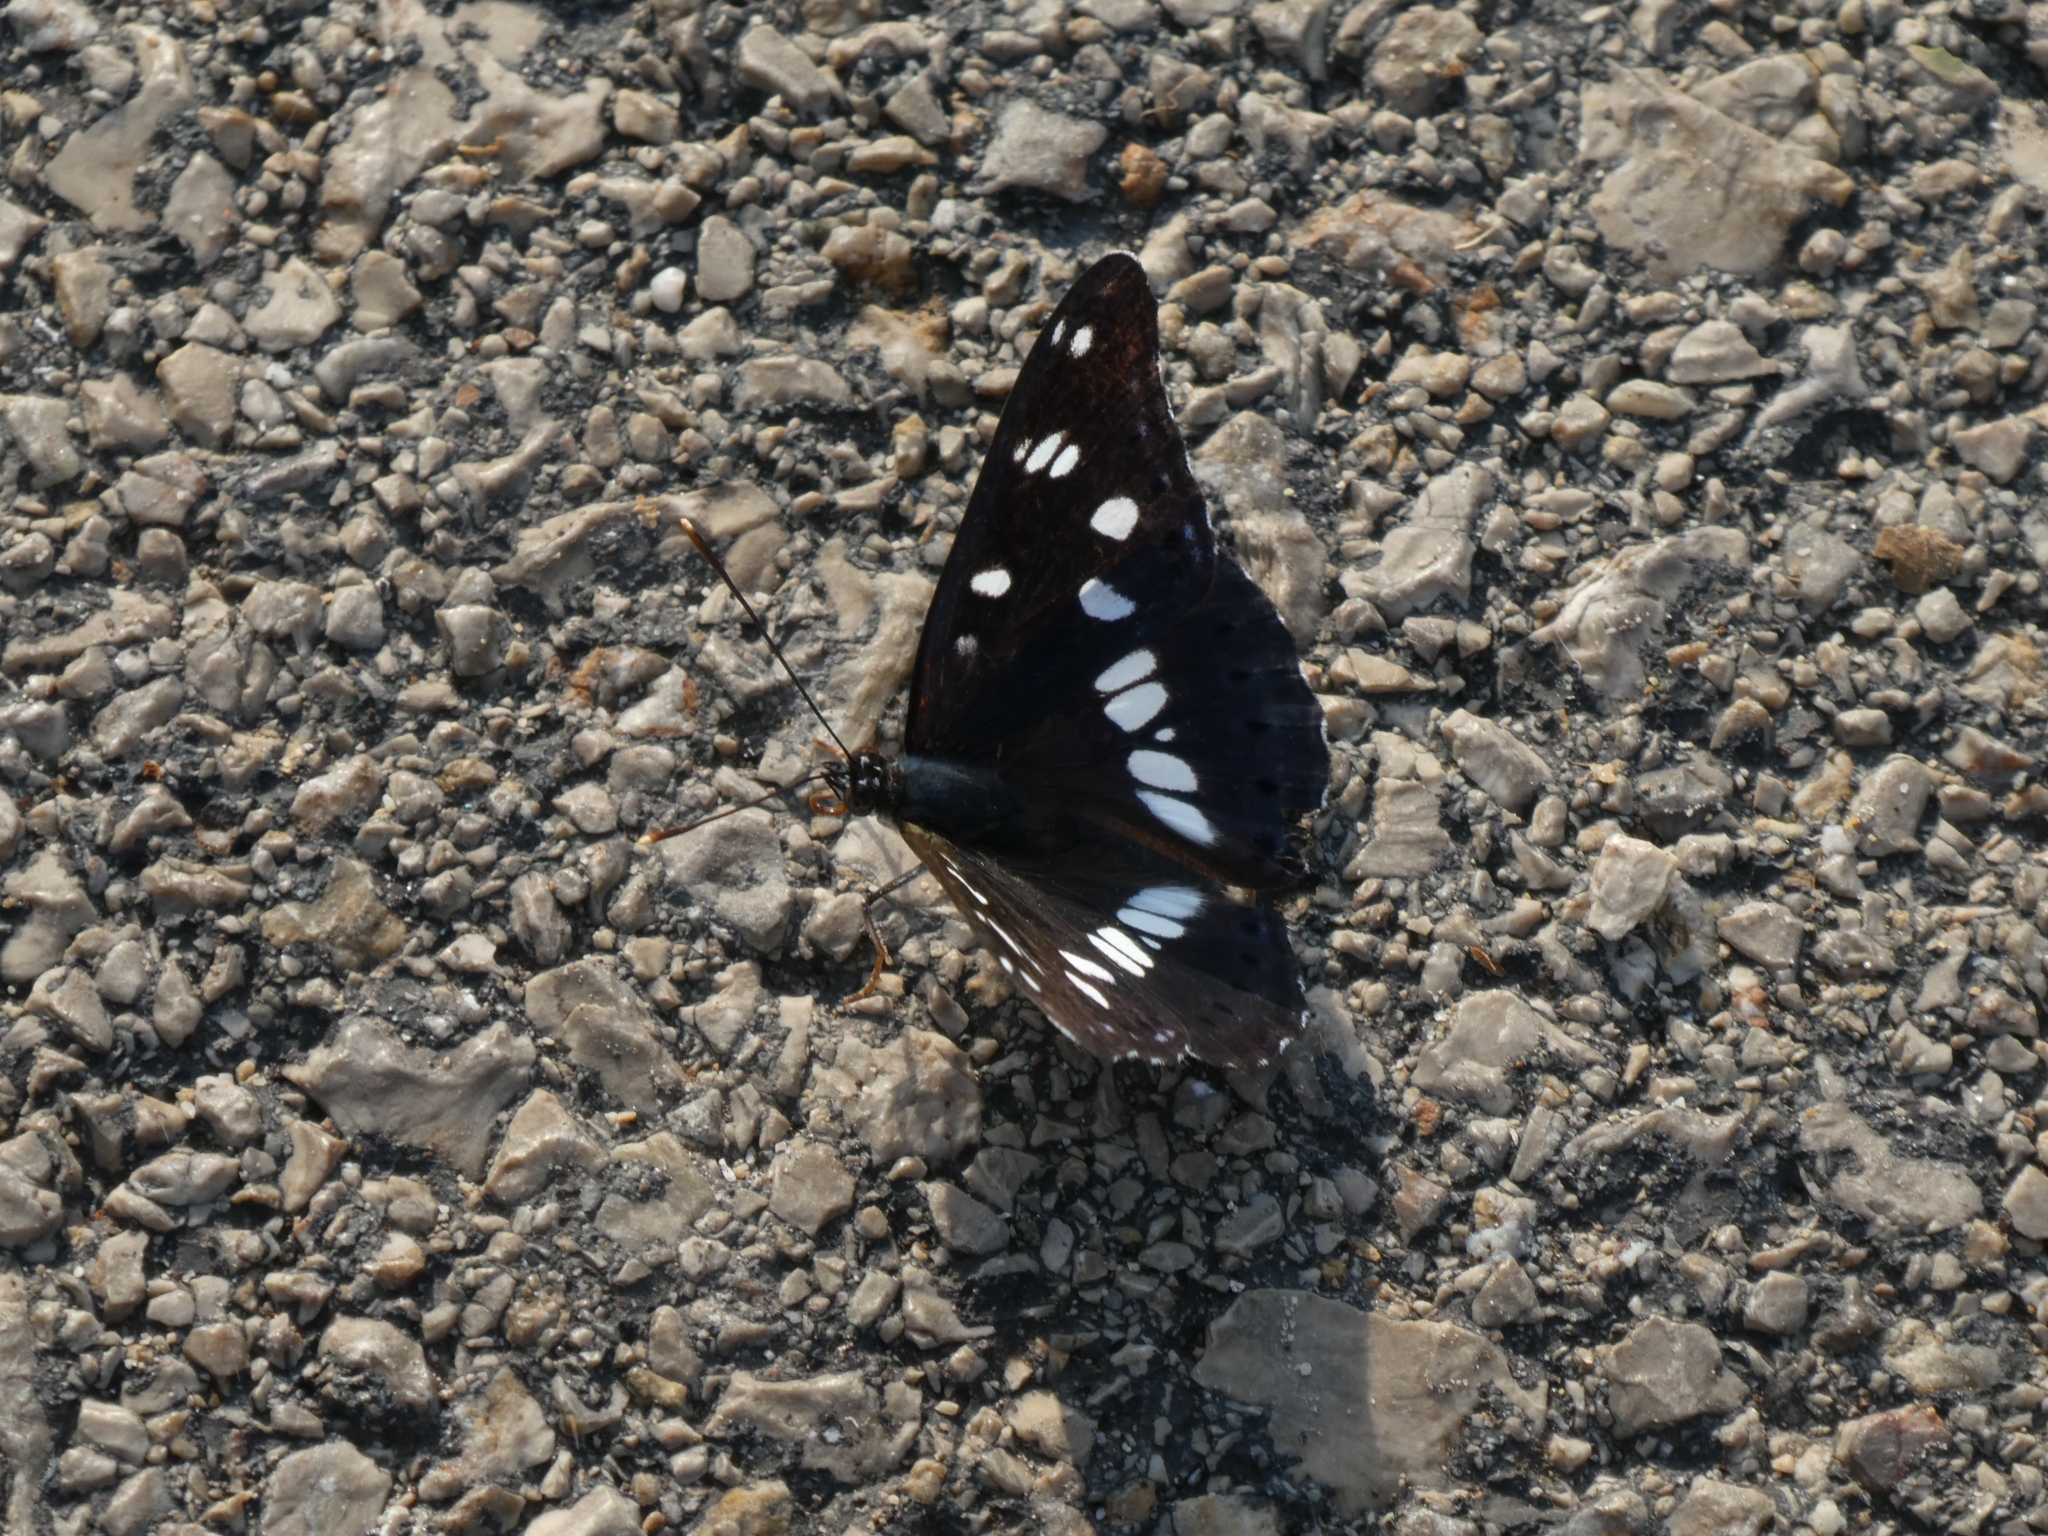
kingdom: Animalia
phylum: Arthropoda
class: Insecta
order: Lepidoptera
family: Nymphalidae
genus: Limenitis
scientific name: Limenitis reducta
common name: Southern white admiral
